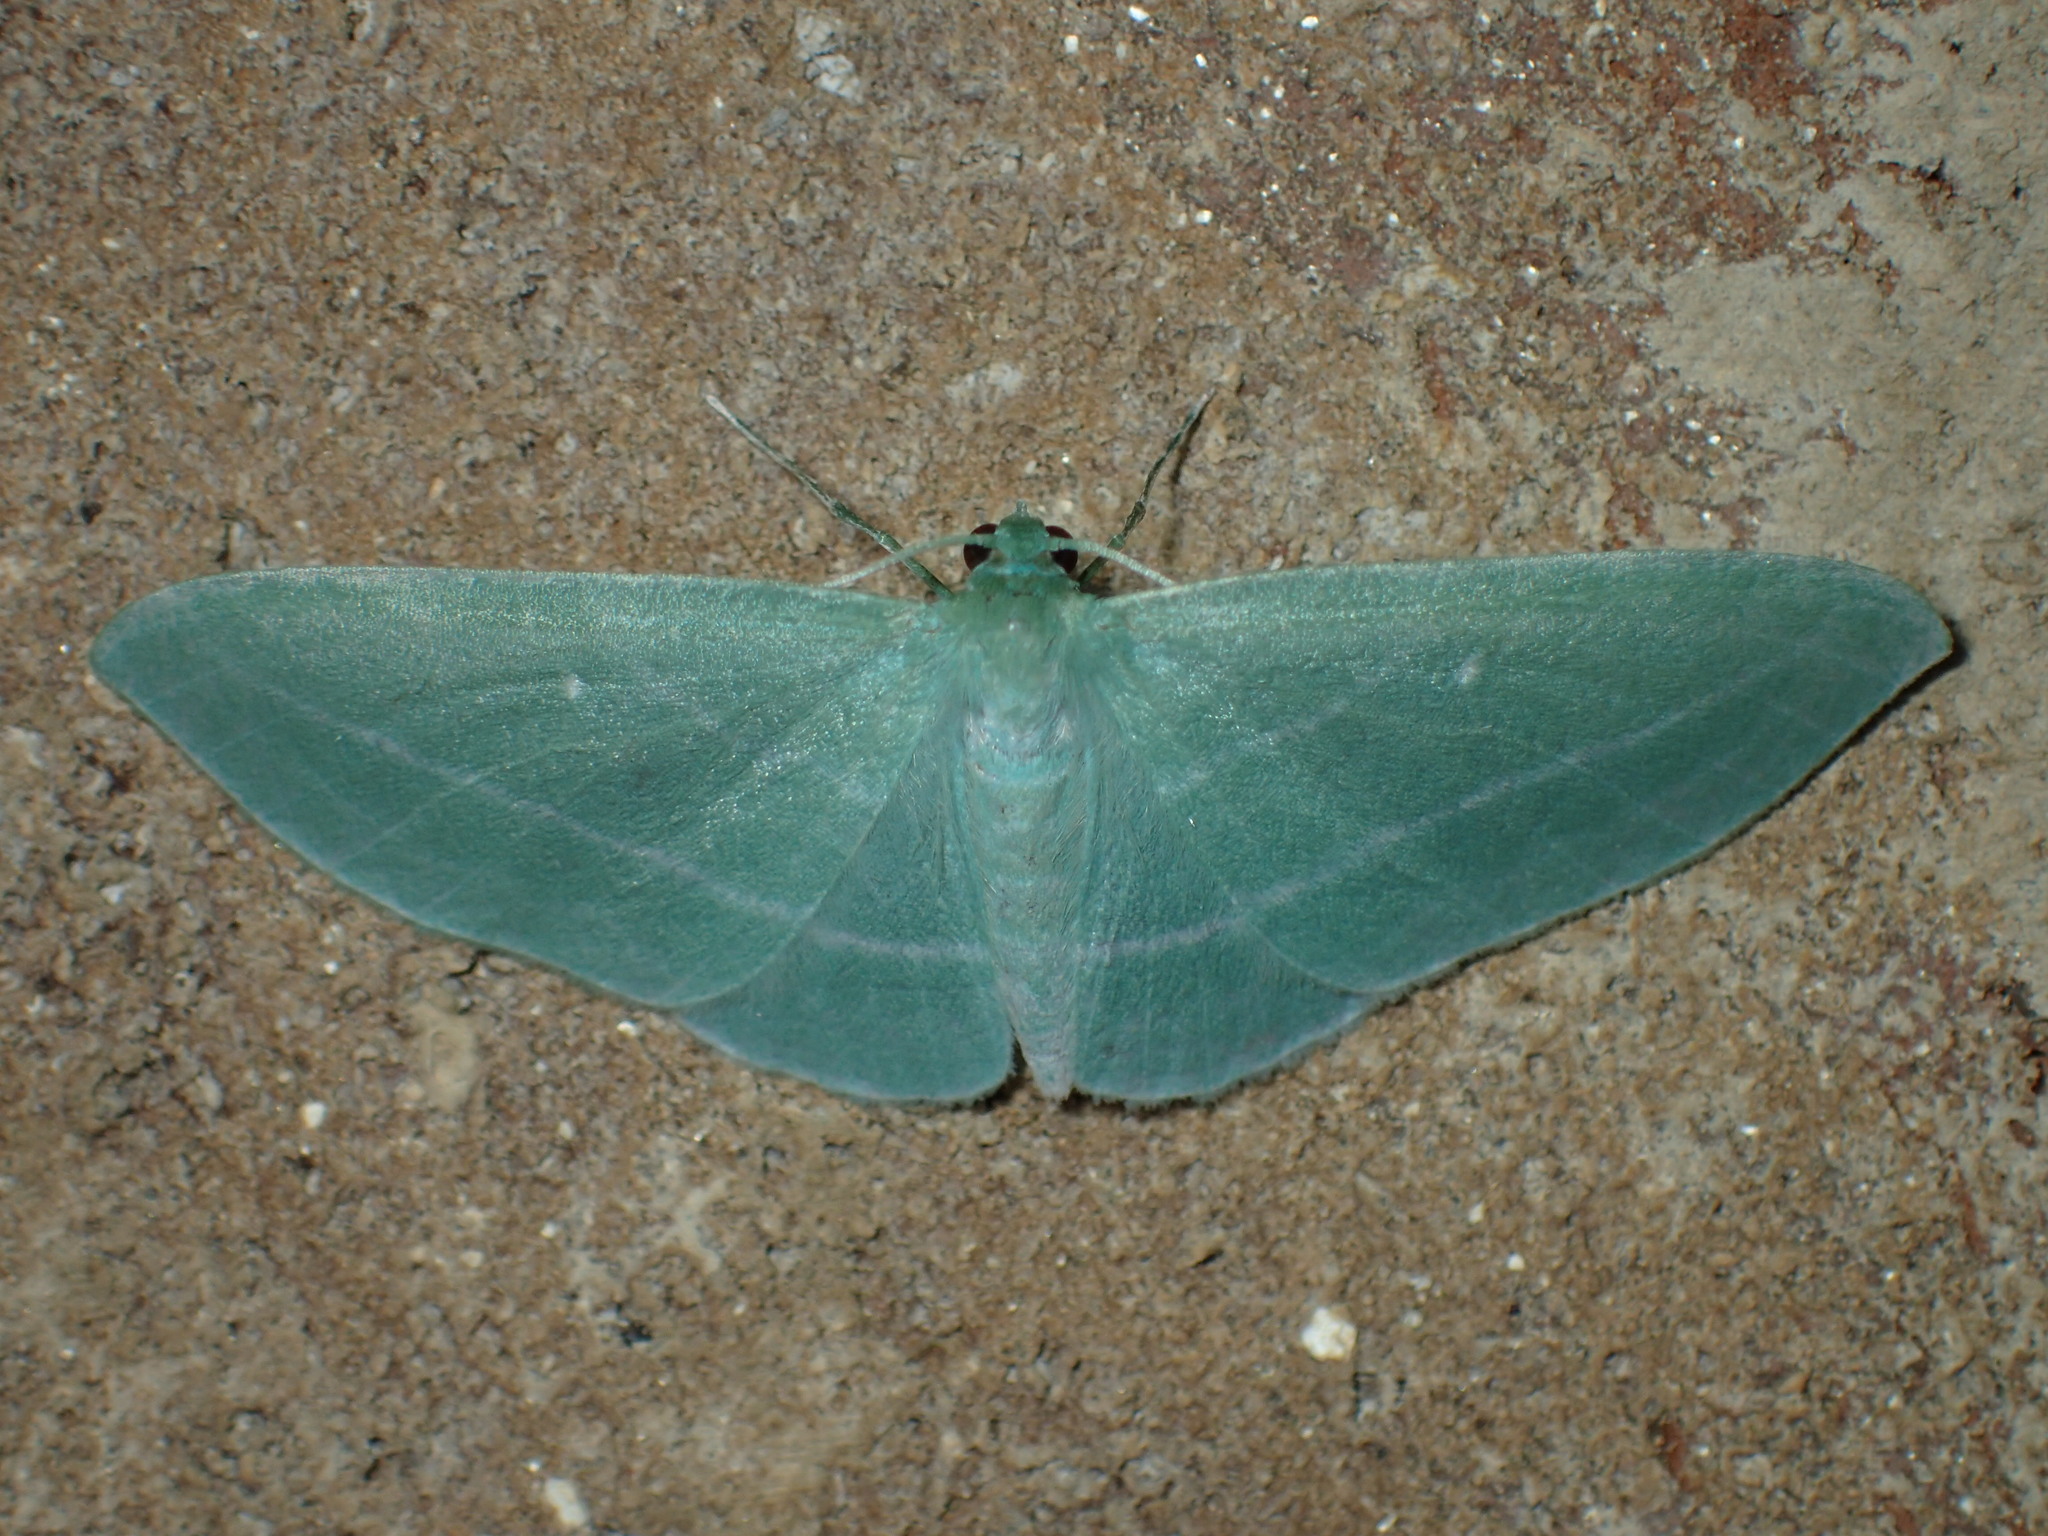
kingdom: Animalia
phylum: Arthropoda
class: Insecta
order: Lepidoptera
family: Geometridae
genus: Dyspteris
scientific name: Dyspteris abortivaria
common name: Bad-wing
